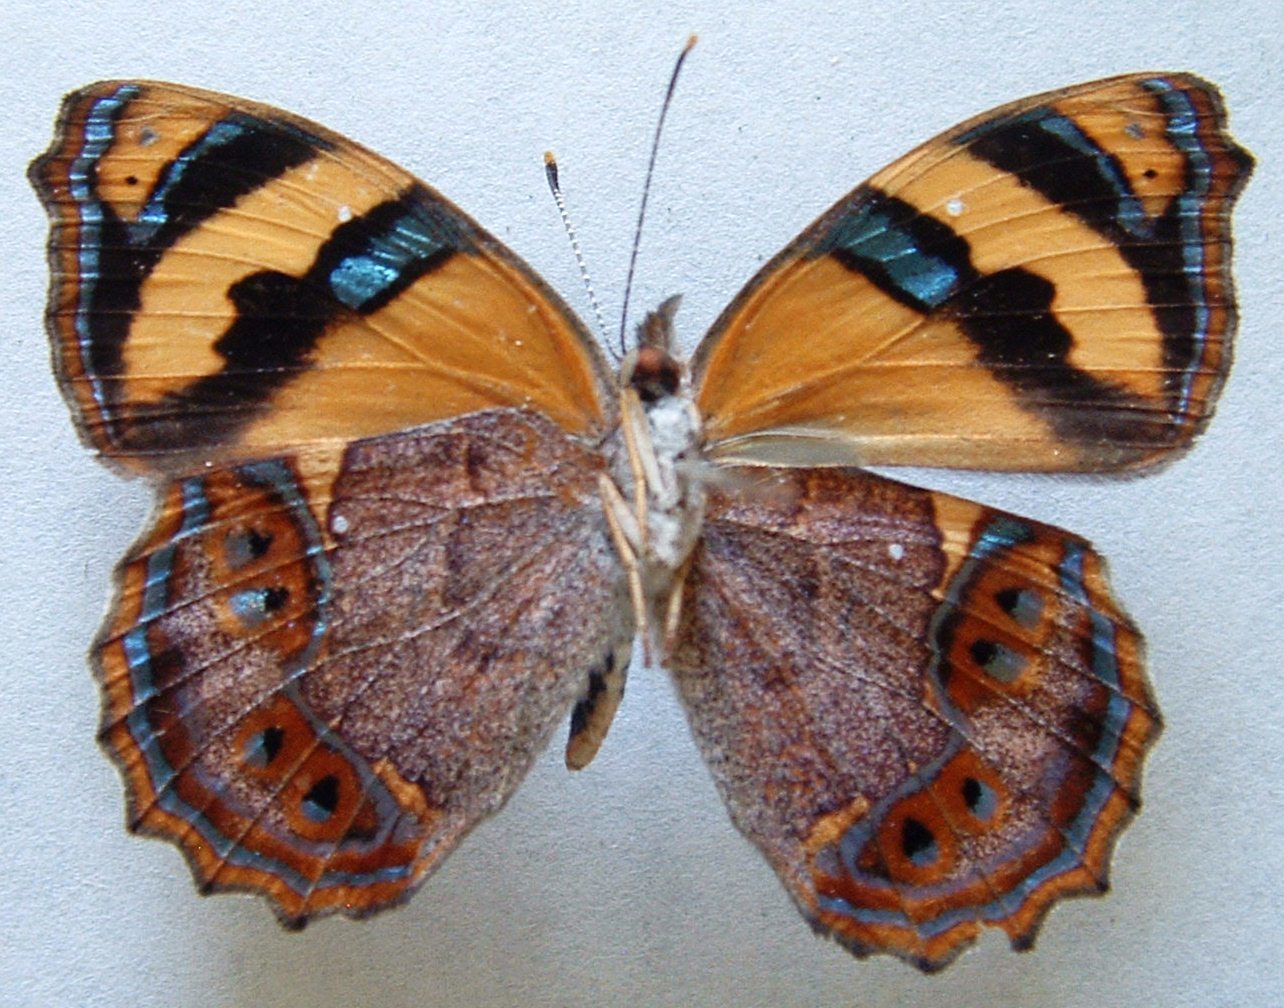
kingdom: Animalia
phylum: Arthropoda
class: Insecta
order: Lepidoptera
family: Nymphalidae
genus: Bolboneura
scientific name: Bolboneura sylphis
